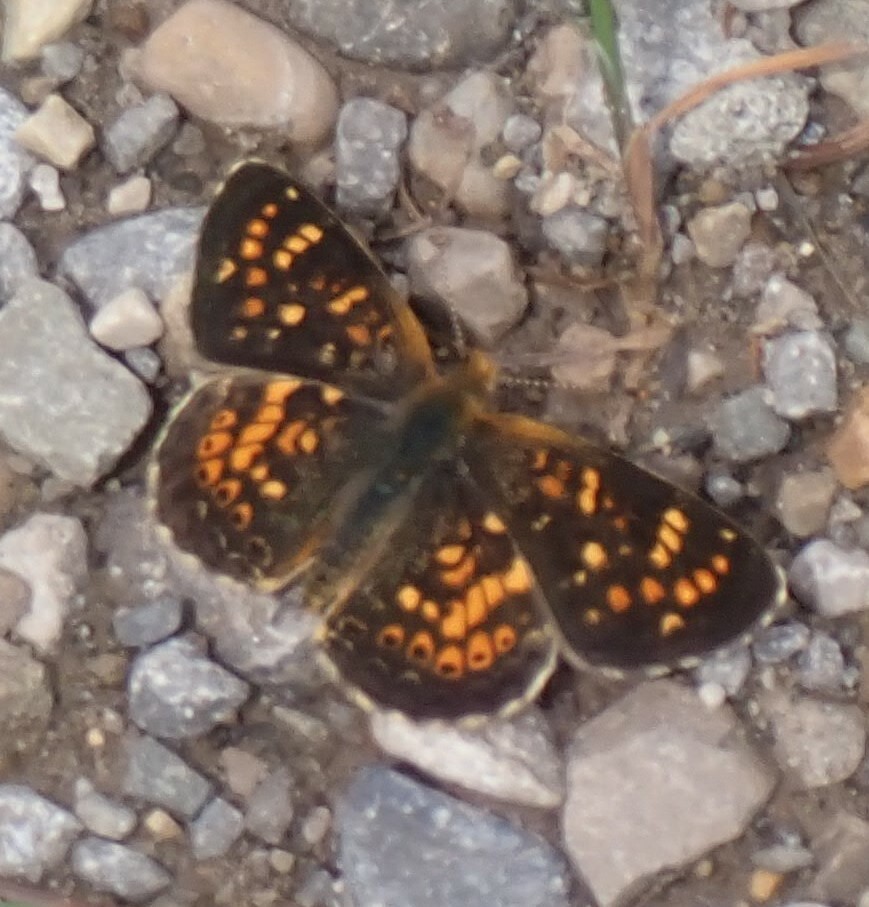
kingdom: Animalia
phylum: Arthropoda
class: Insecta
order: Lepidoptera
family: Nymphalidae
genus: Phyciodes
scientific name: Phyciodes tharos
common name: Pearl crescent
